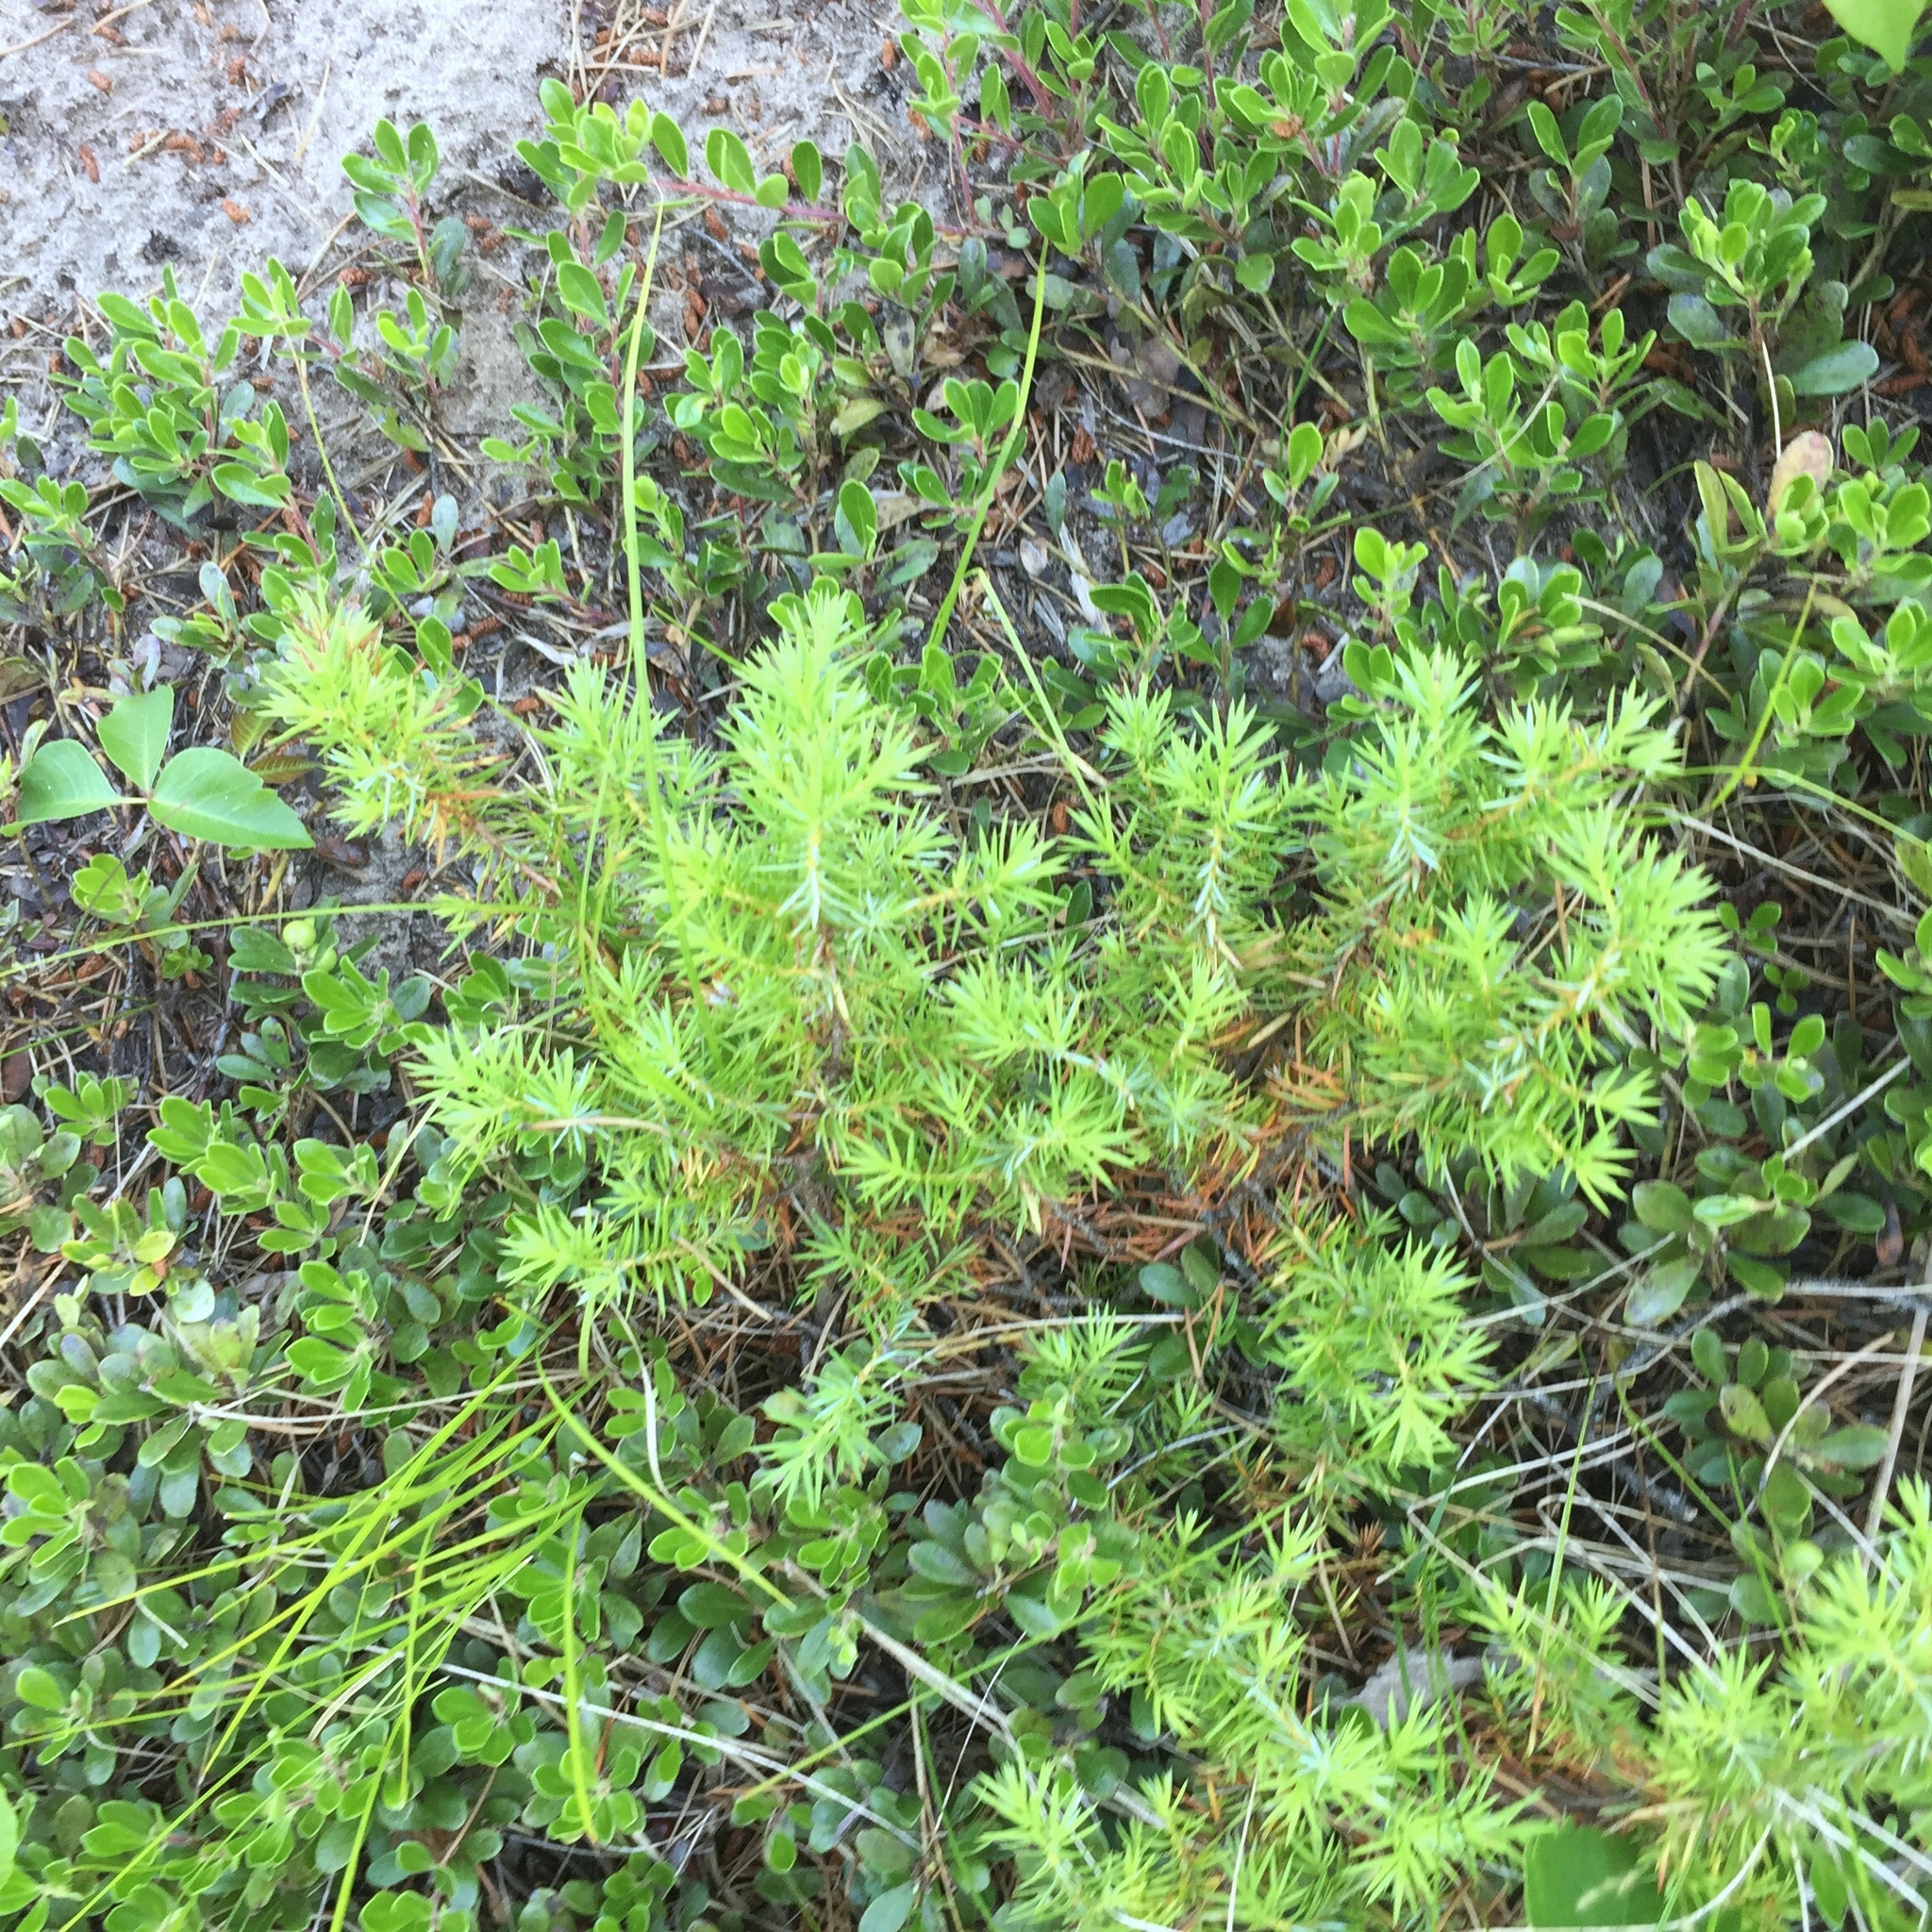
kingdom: Plantae
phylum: Tracheophyta
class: Pinopsida
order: Pinales
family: Cupressaceae
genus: Juniperus
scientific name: Juniperus communis
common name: Common juniper
